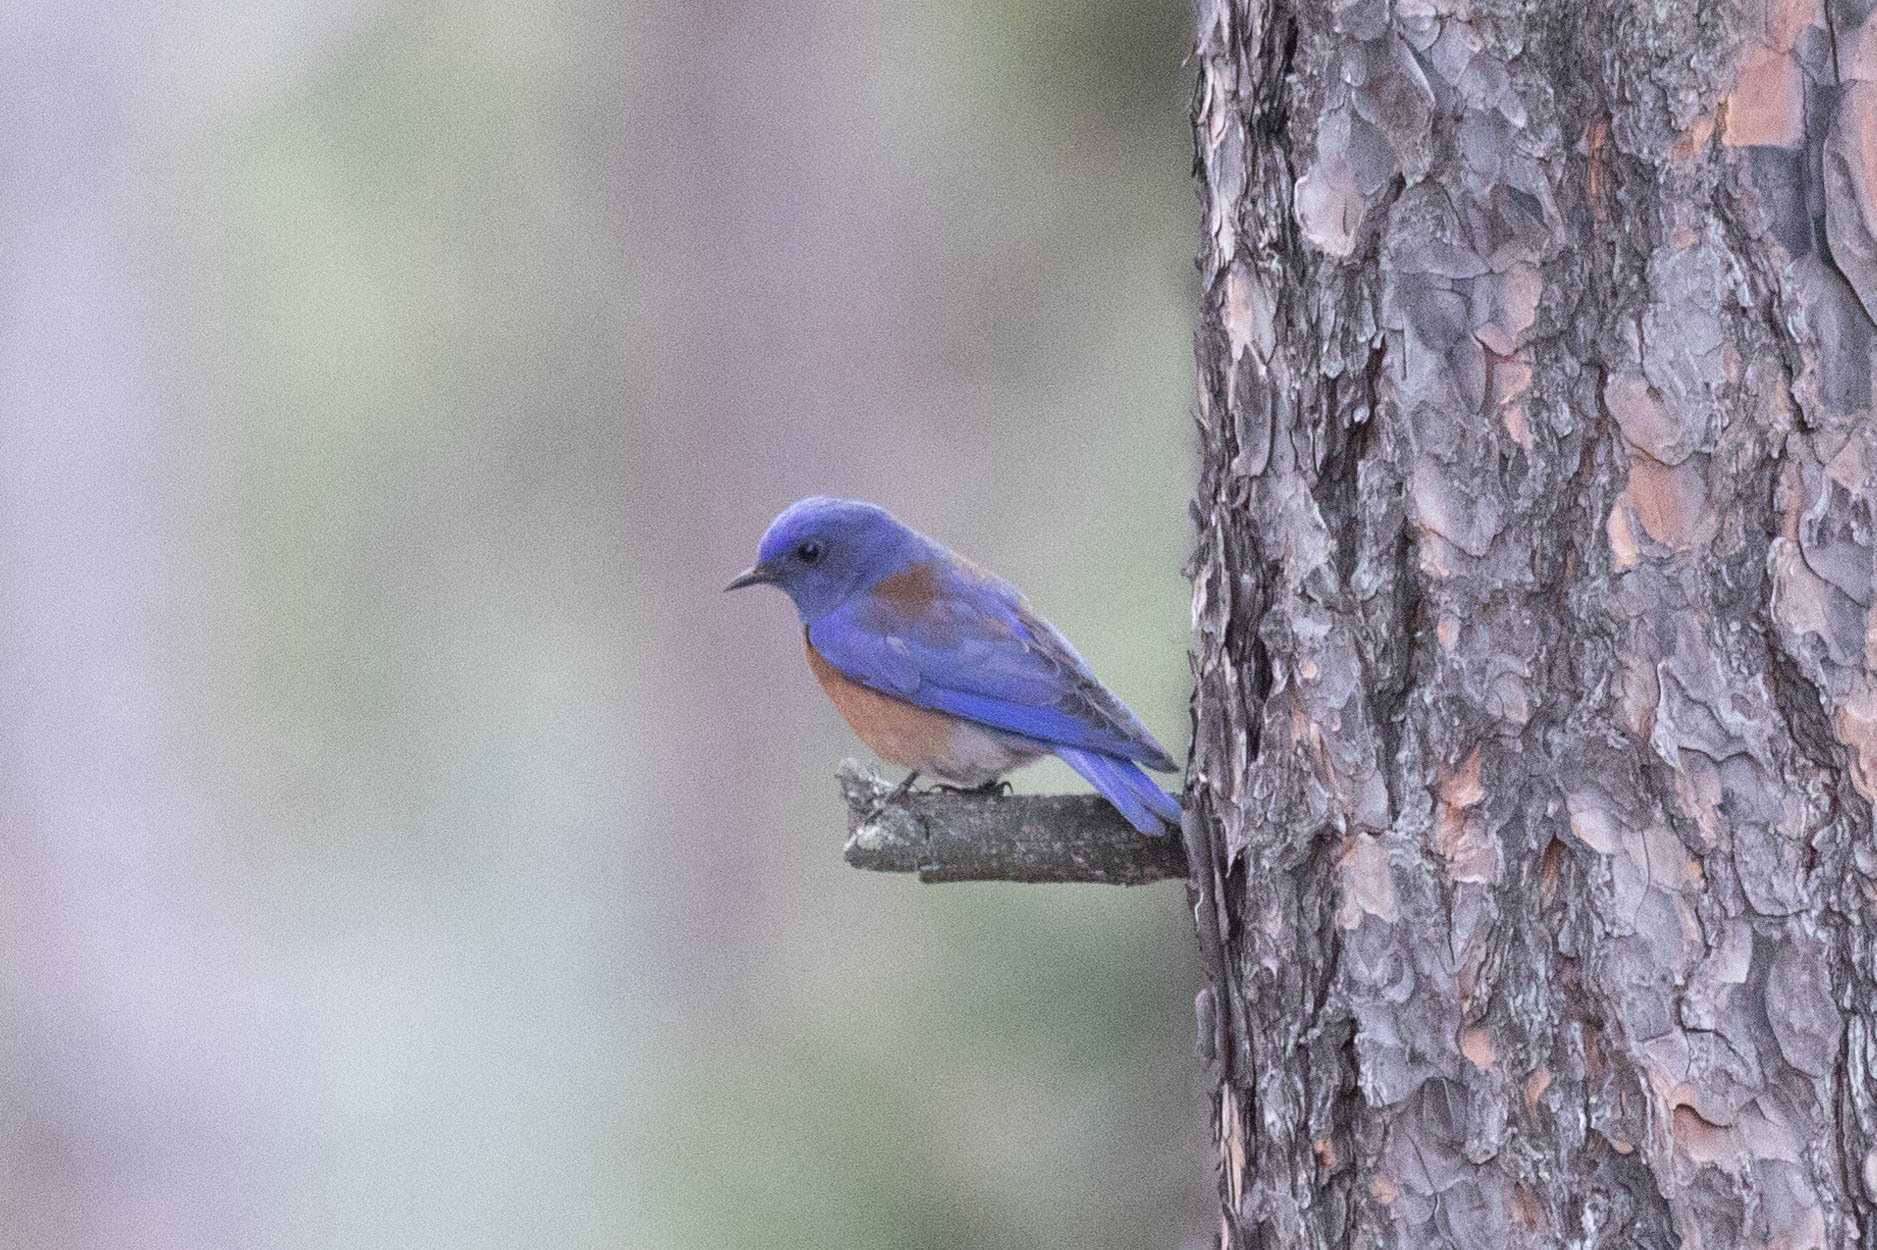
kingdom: Animalia
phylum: Chordata
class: Aves
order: Passeriformes
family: Turdidae
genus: Sialia
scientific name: Sialia mexicana
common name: Western bluebird
